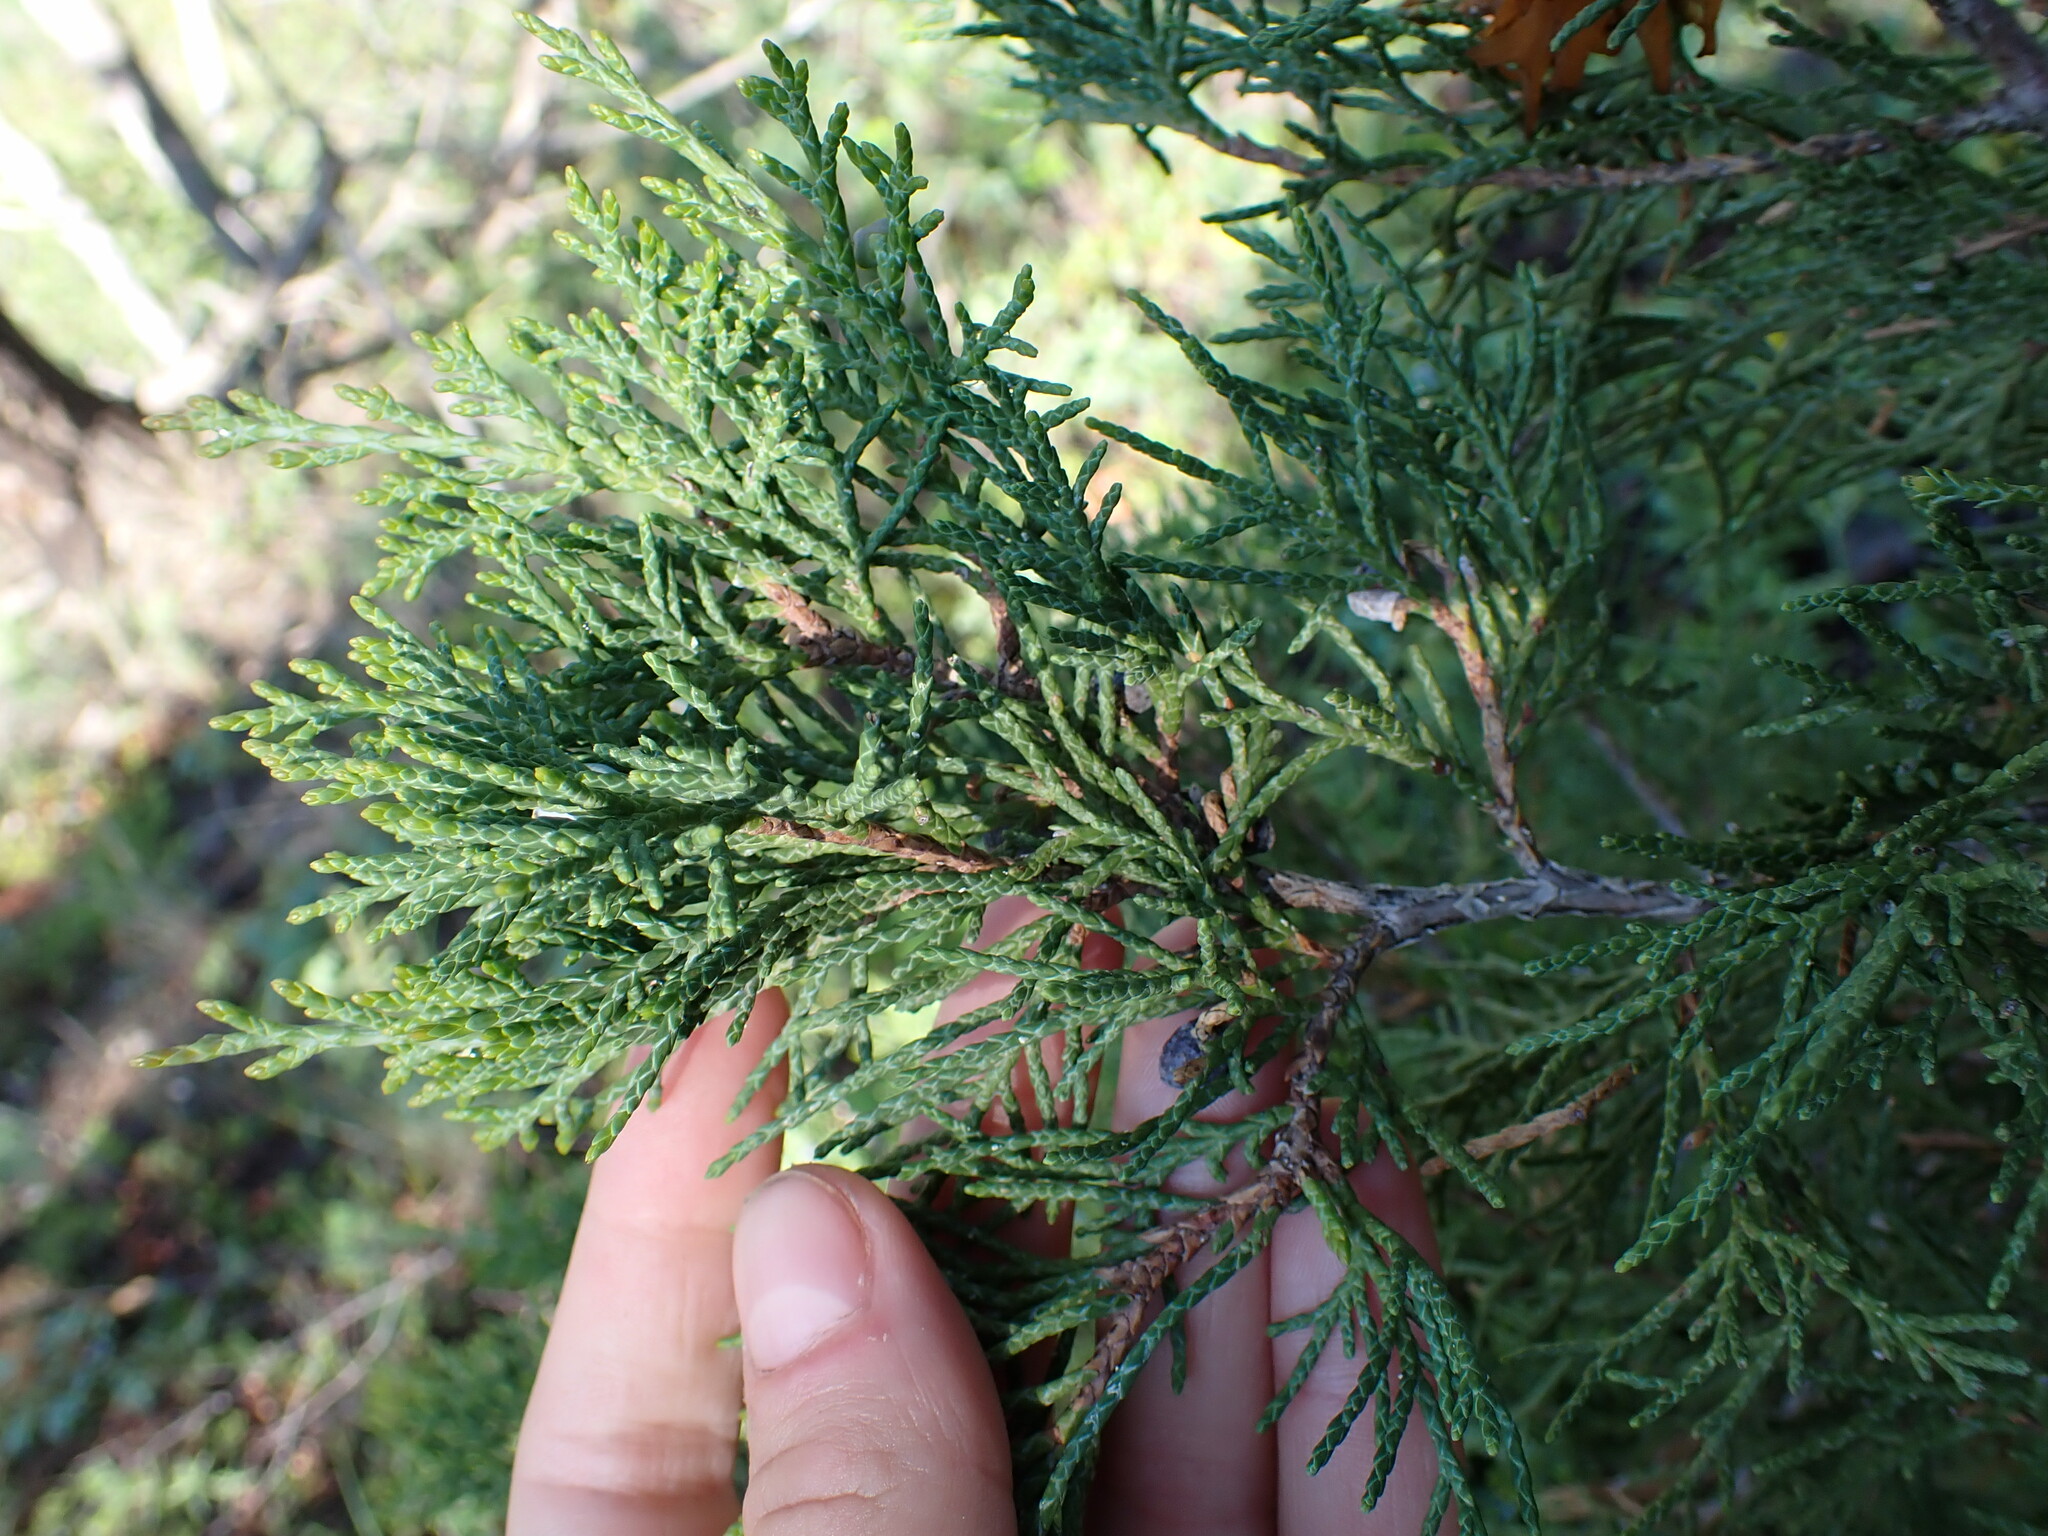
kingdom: Plantae
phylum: Tracheophyta
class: Pinopsida
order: Pinales
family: Cupressaceae
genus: Juniperus
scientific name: Juniperus scopulorum
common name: Rocky mountain juniper
